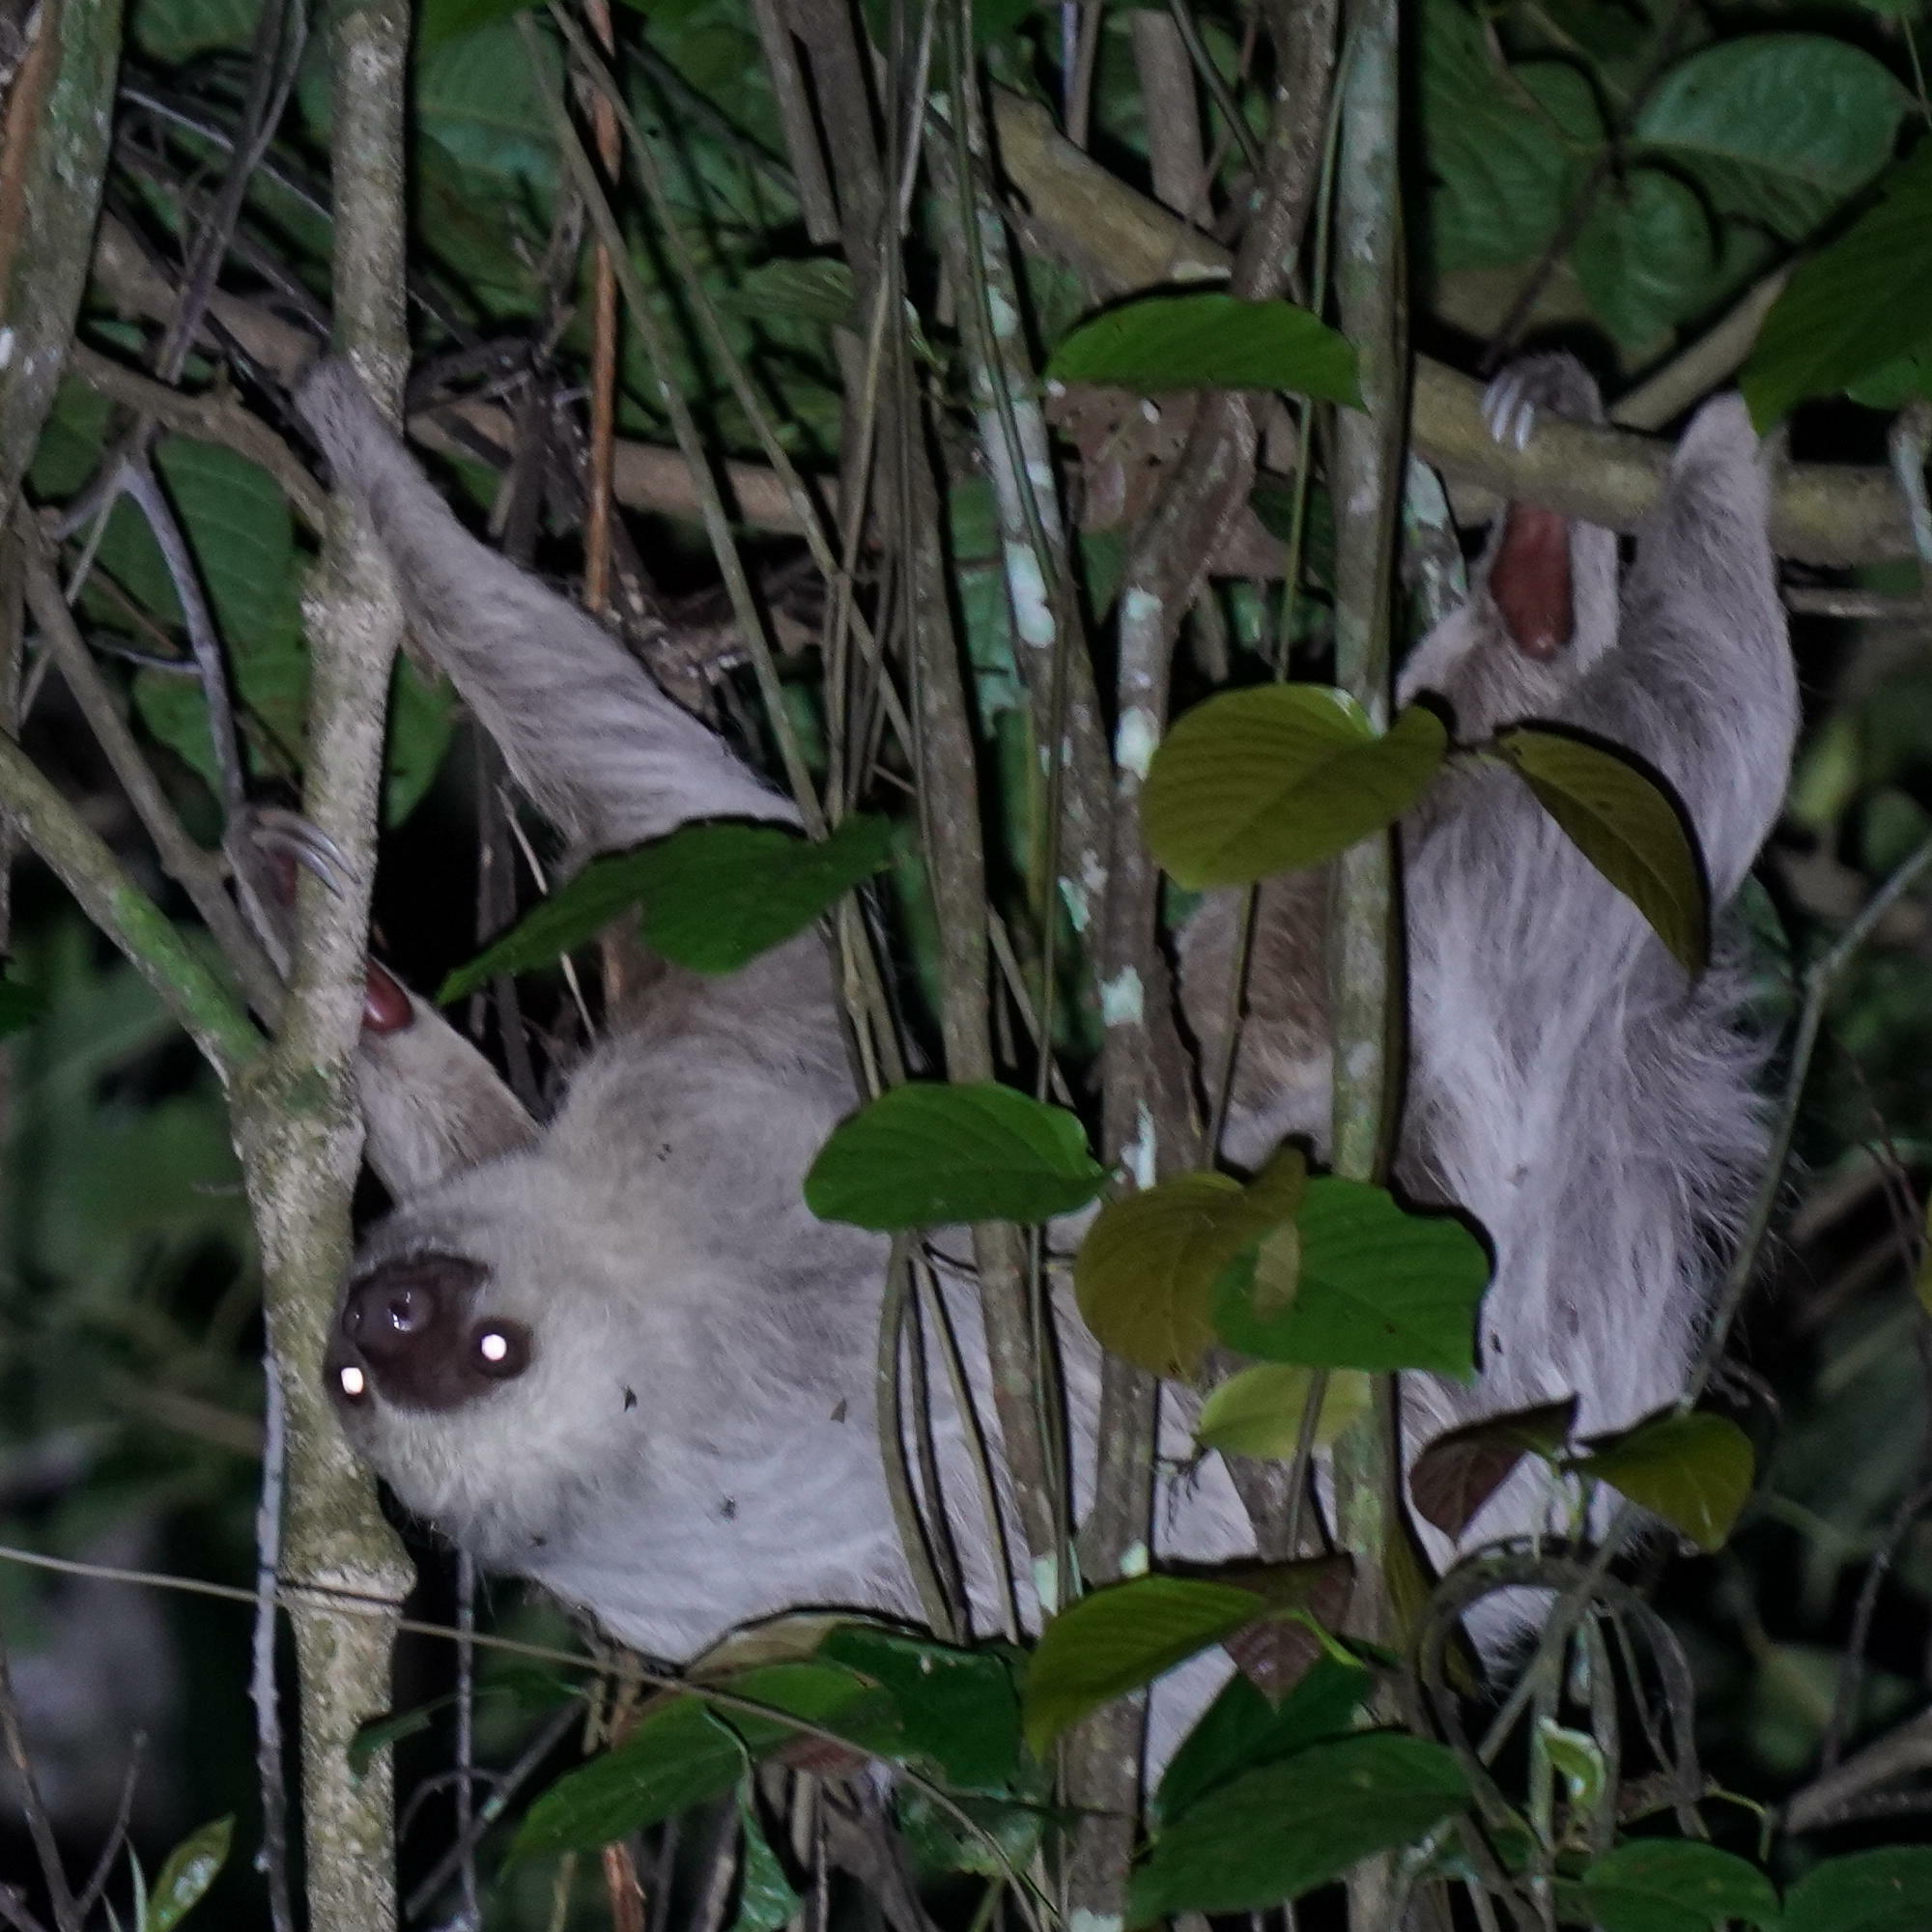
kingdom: Animalia
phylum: Chordata
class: Mammalia
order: Pilosa
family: Megalonychidae
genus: Choloepus
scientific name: Choloepus hoffmanni
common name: Hoffmann's two-toed sloth
